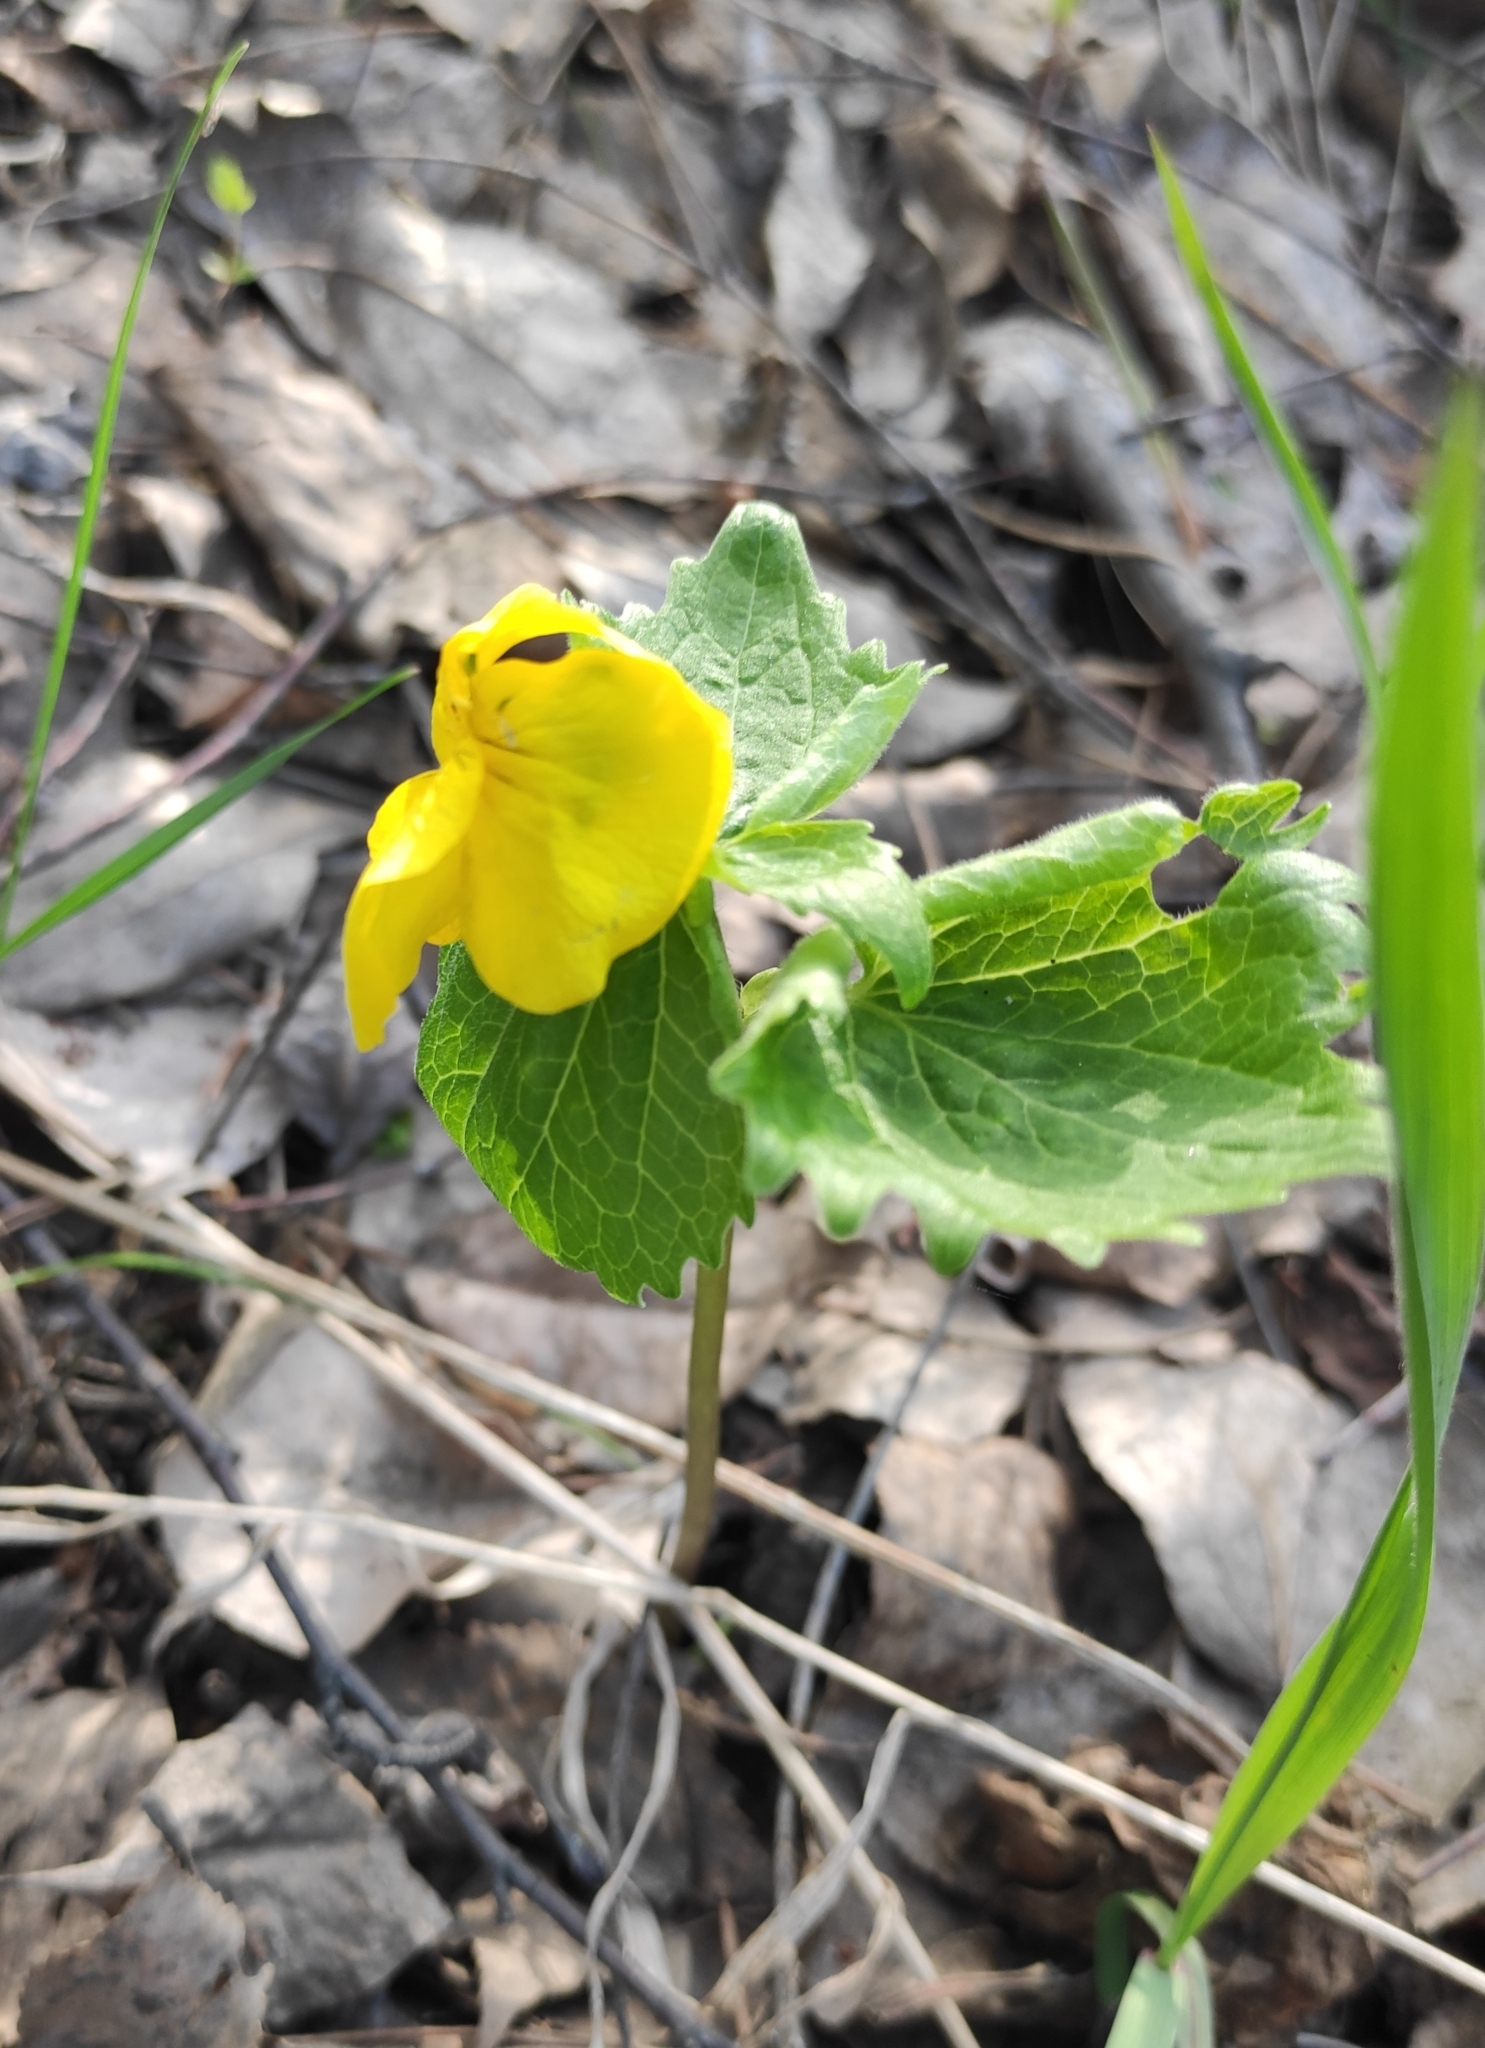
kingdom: Plantae
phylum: Tracheophyta
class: Magnoliopsida
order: Malpighiales
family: Violaceae
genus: Viola
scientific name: Viola uniflora
